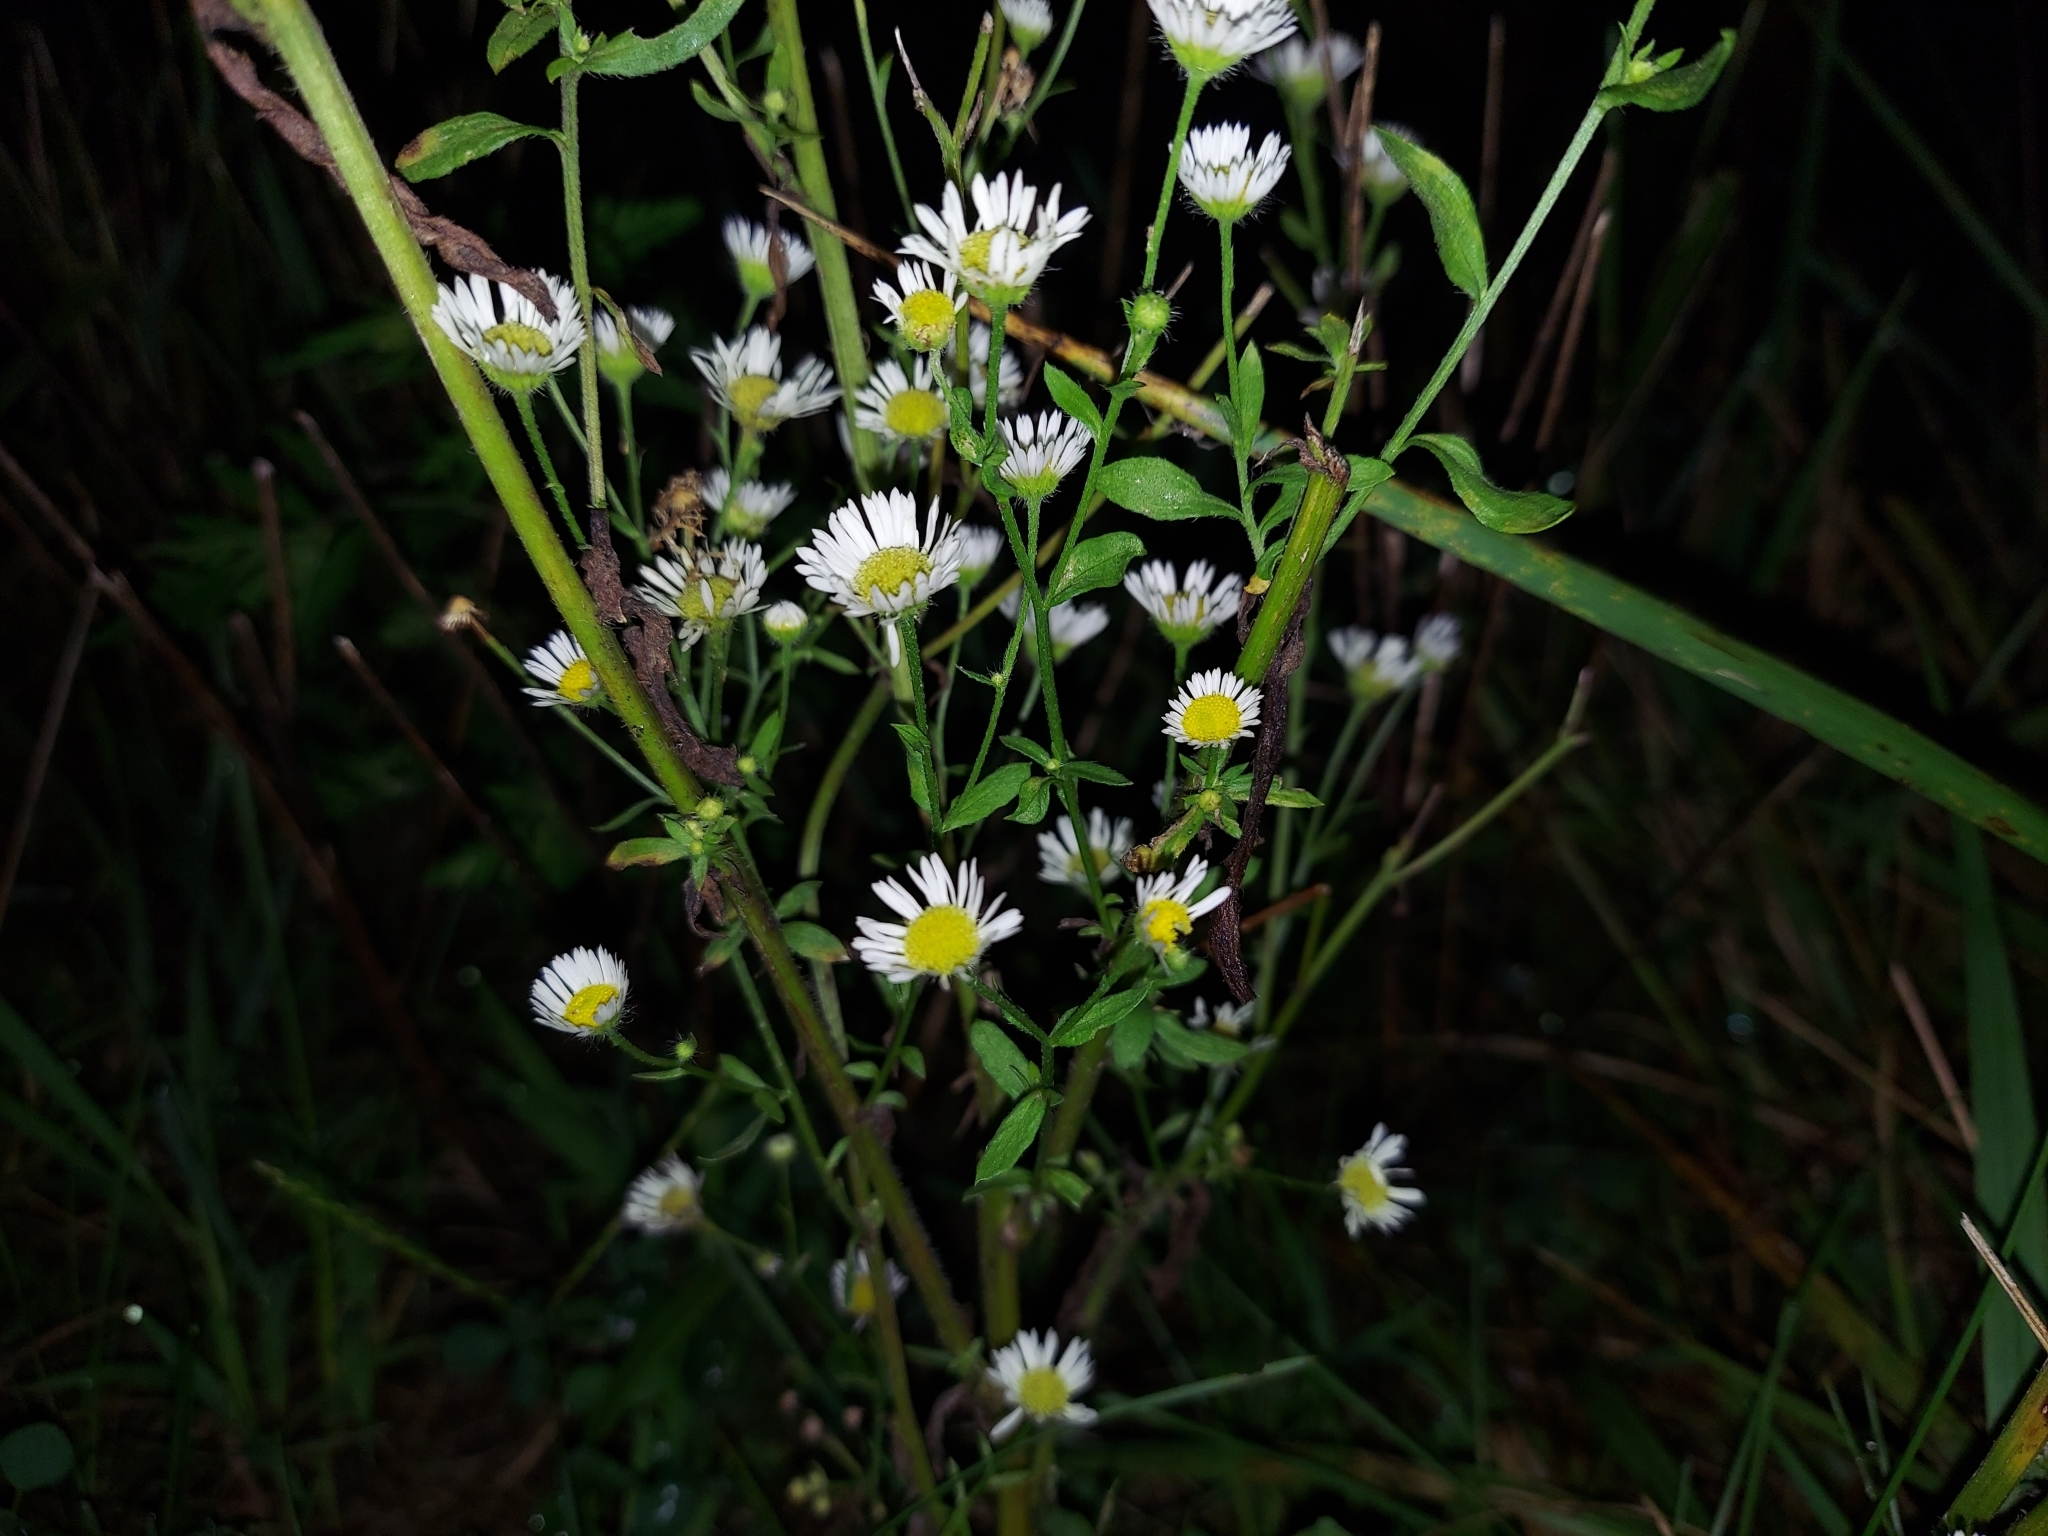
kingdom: Plantae
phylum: Tracheophyta
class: Magnoliopsida
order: Asterales
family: Asteraceae
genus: Erigeron
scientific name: Erigeron strigosus
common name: Common eastern fleabane
